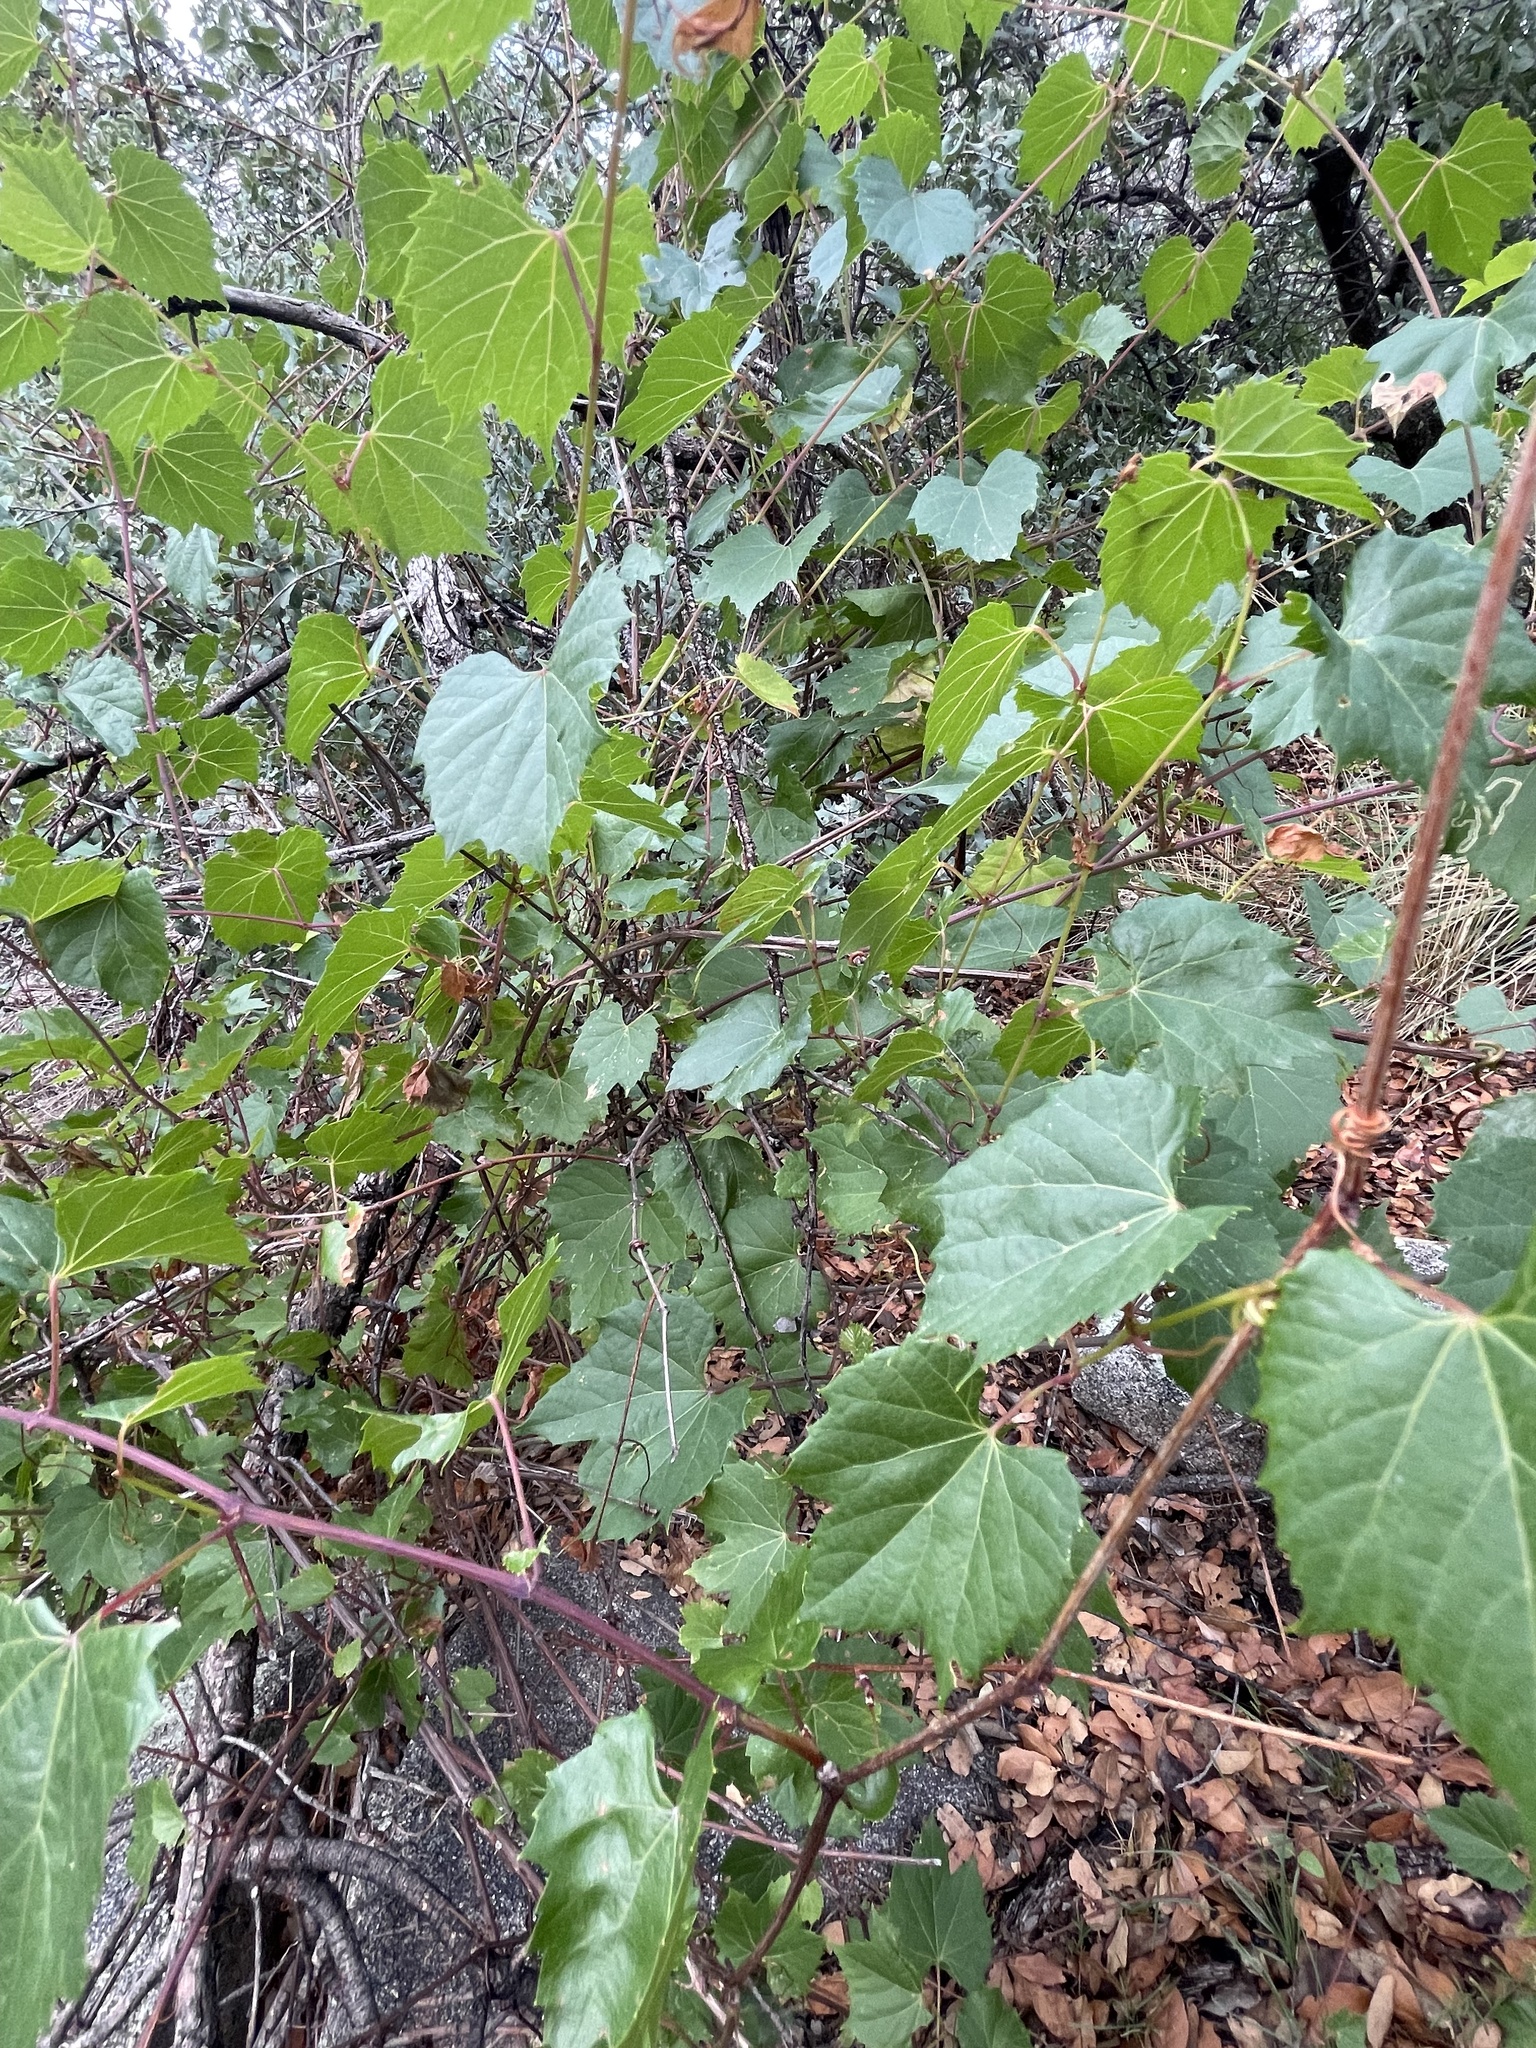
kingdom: Plantae
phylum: Tracheophyta
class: Magnoliopsida
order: Vitales
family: Vitaceae
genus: Vitis
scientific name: Vitis arizonica
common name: Canyon grape
